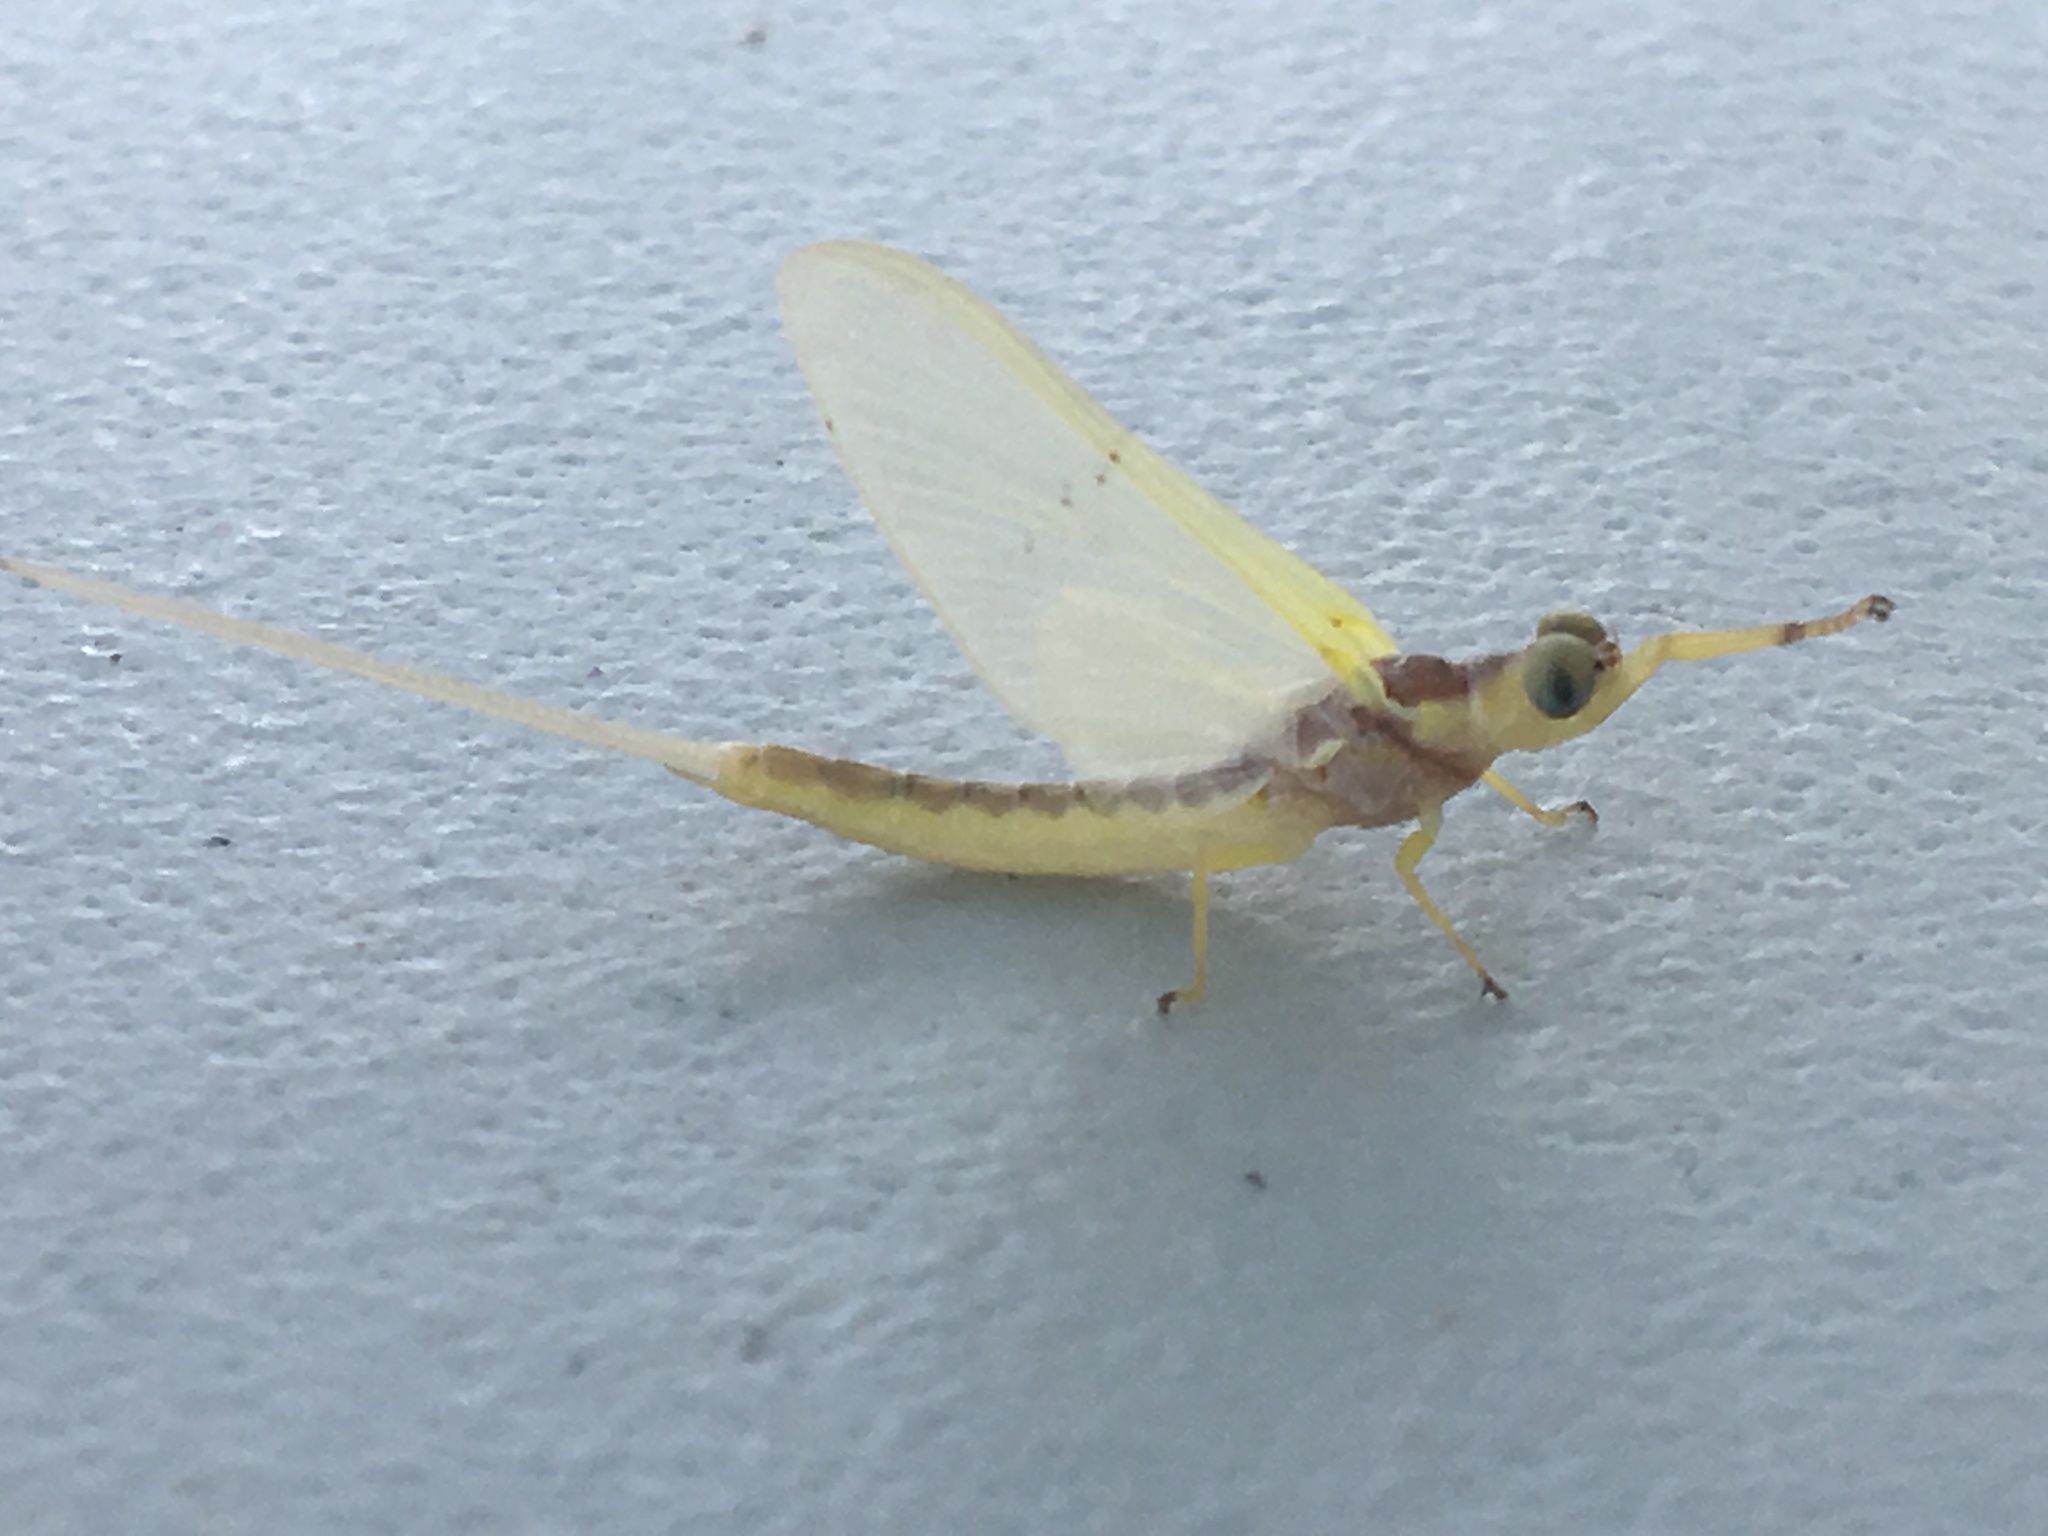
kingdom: Animalia
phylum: Arthropoda
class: Insecta
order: Ephemeroptera
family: Ephemeridae
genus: Pentagenia
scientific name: Pentagenia vittigera
